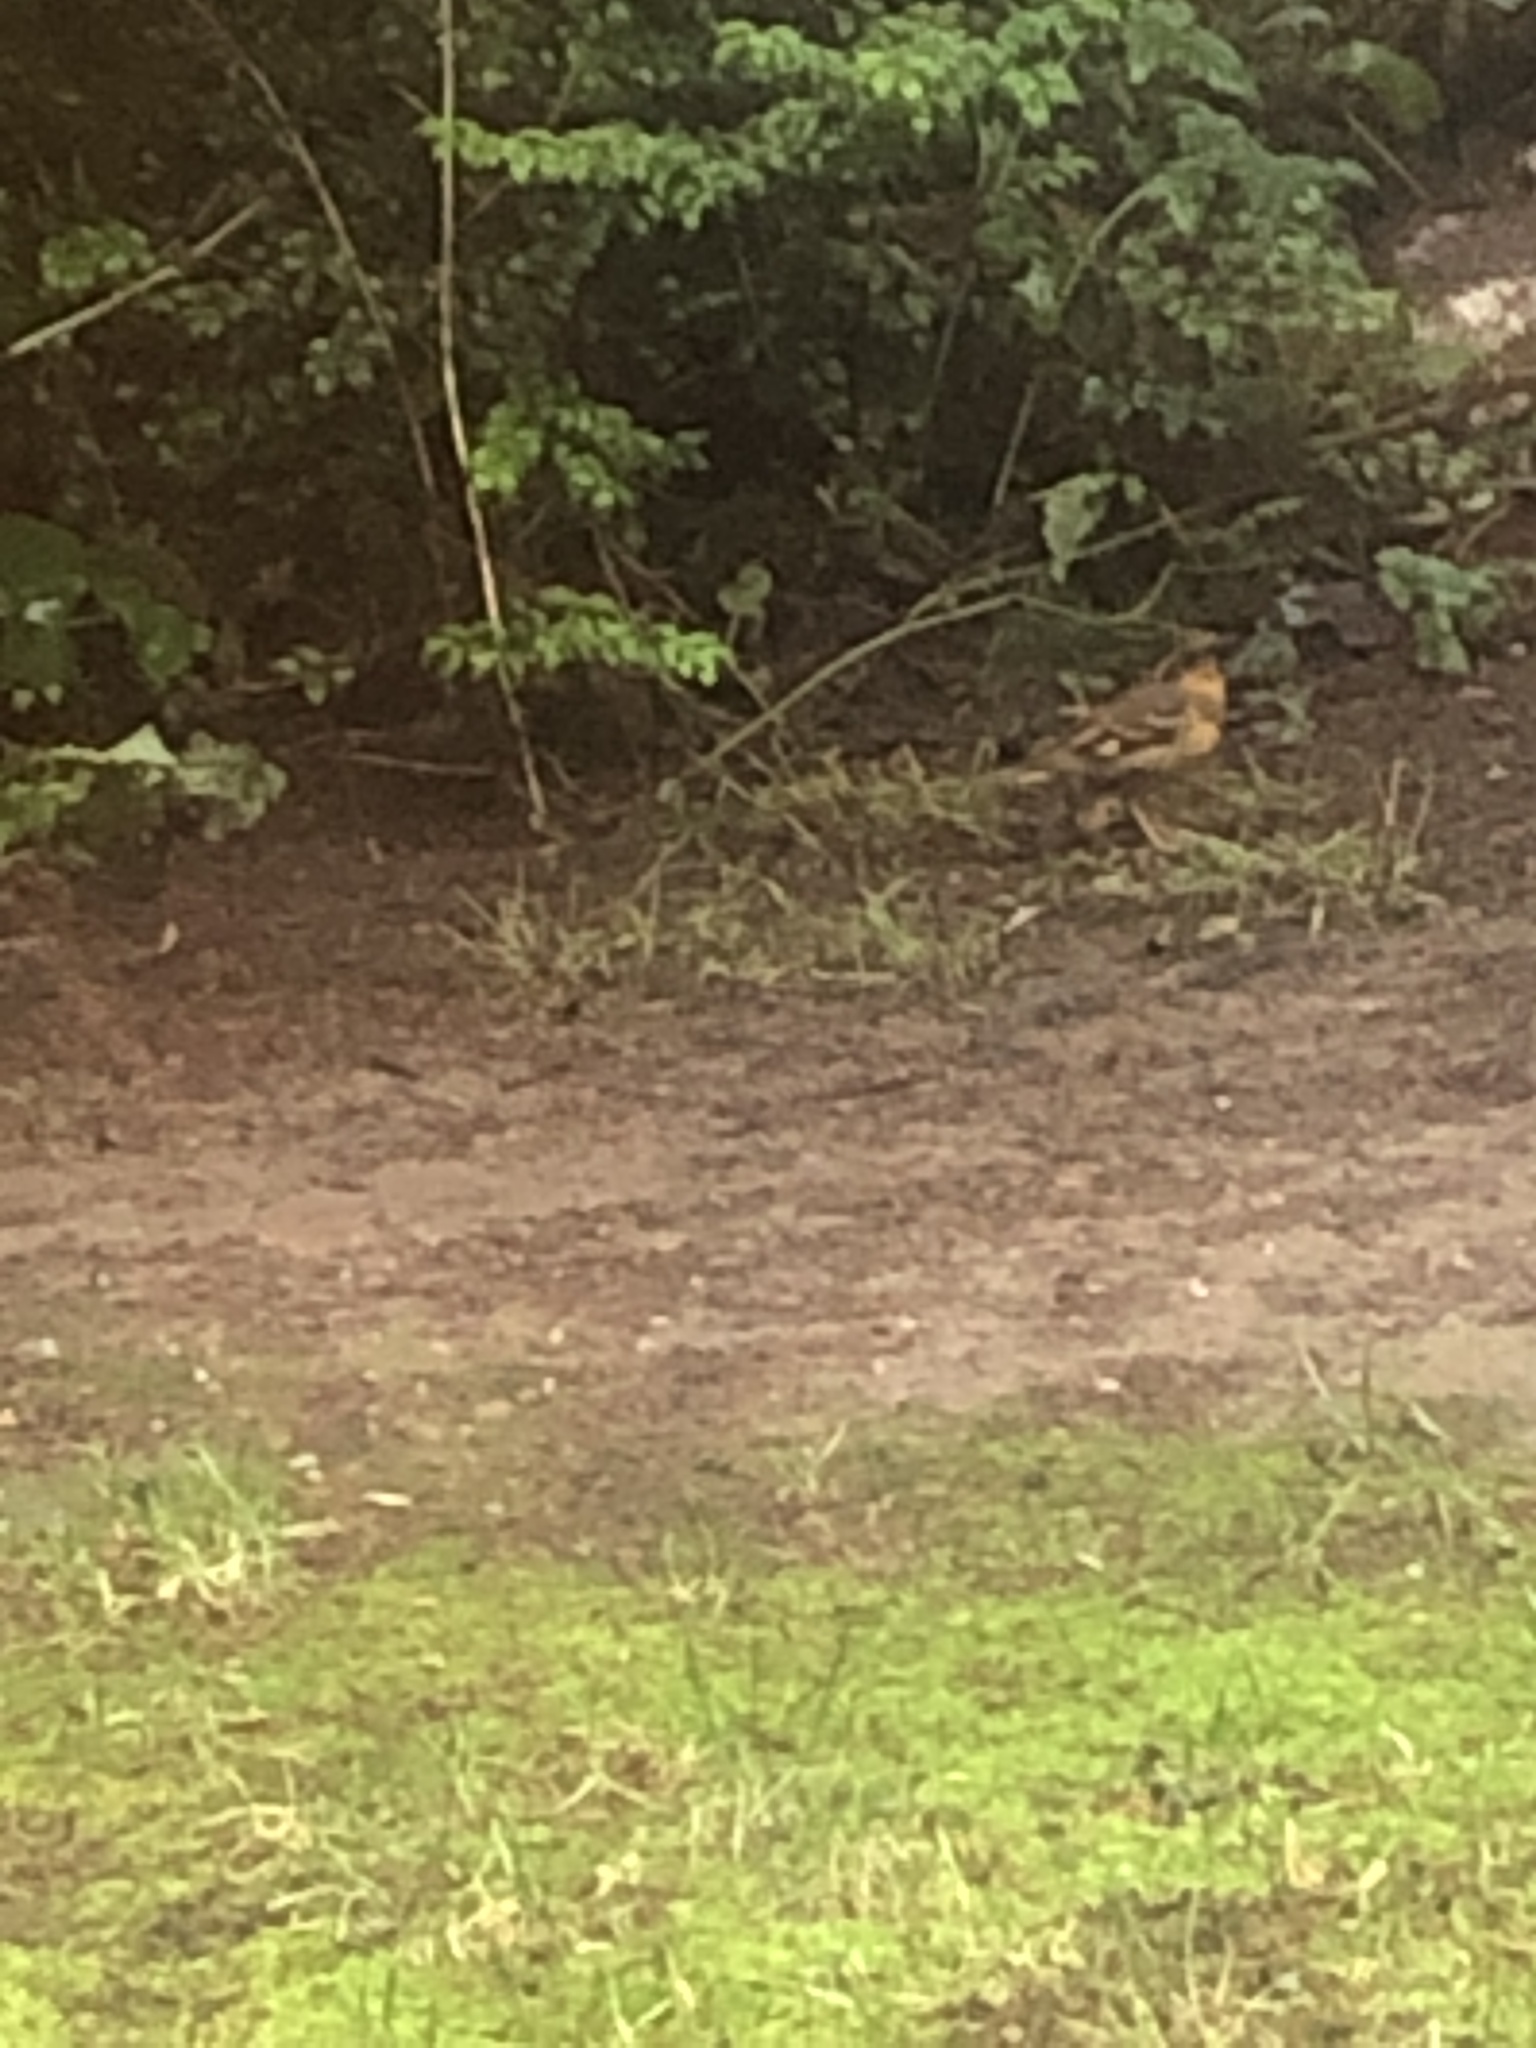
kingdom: Animalia
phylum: Chordata
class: Aves
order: Passeriformes
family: Turdidae
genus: Ixoreus
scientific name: Ixoreus naevius
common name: Varied thrush
